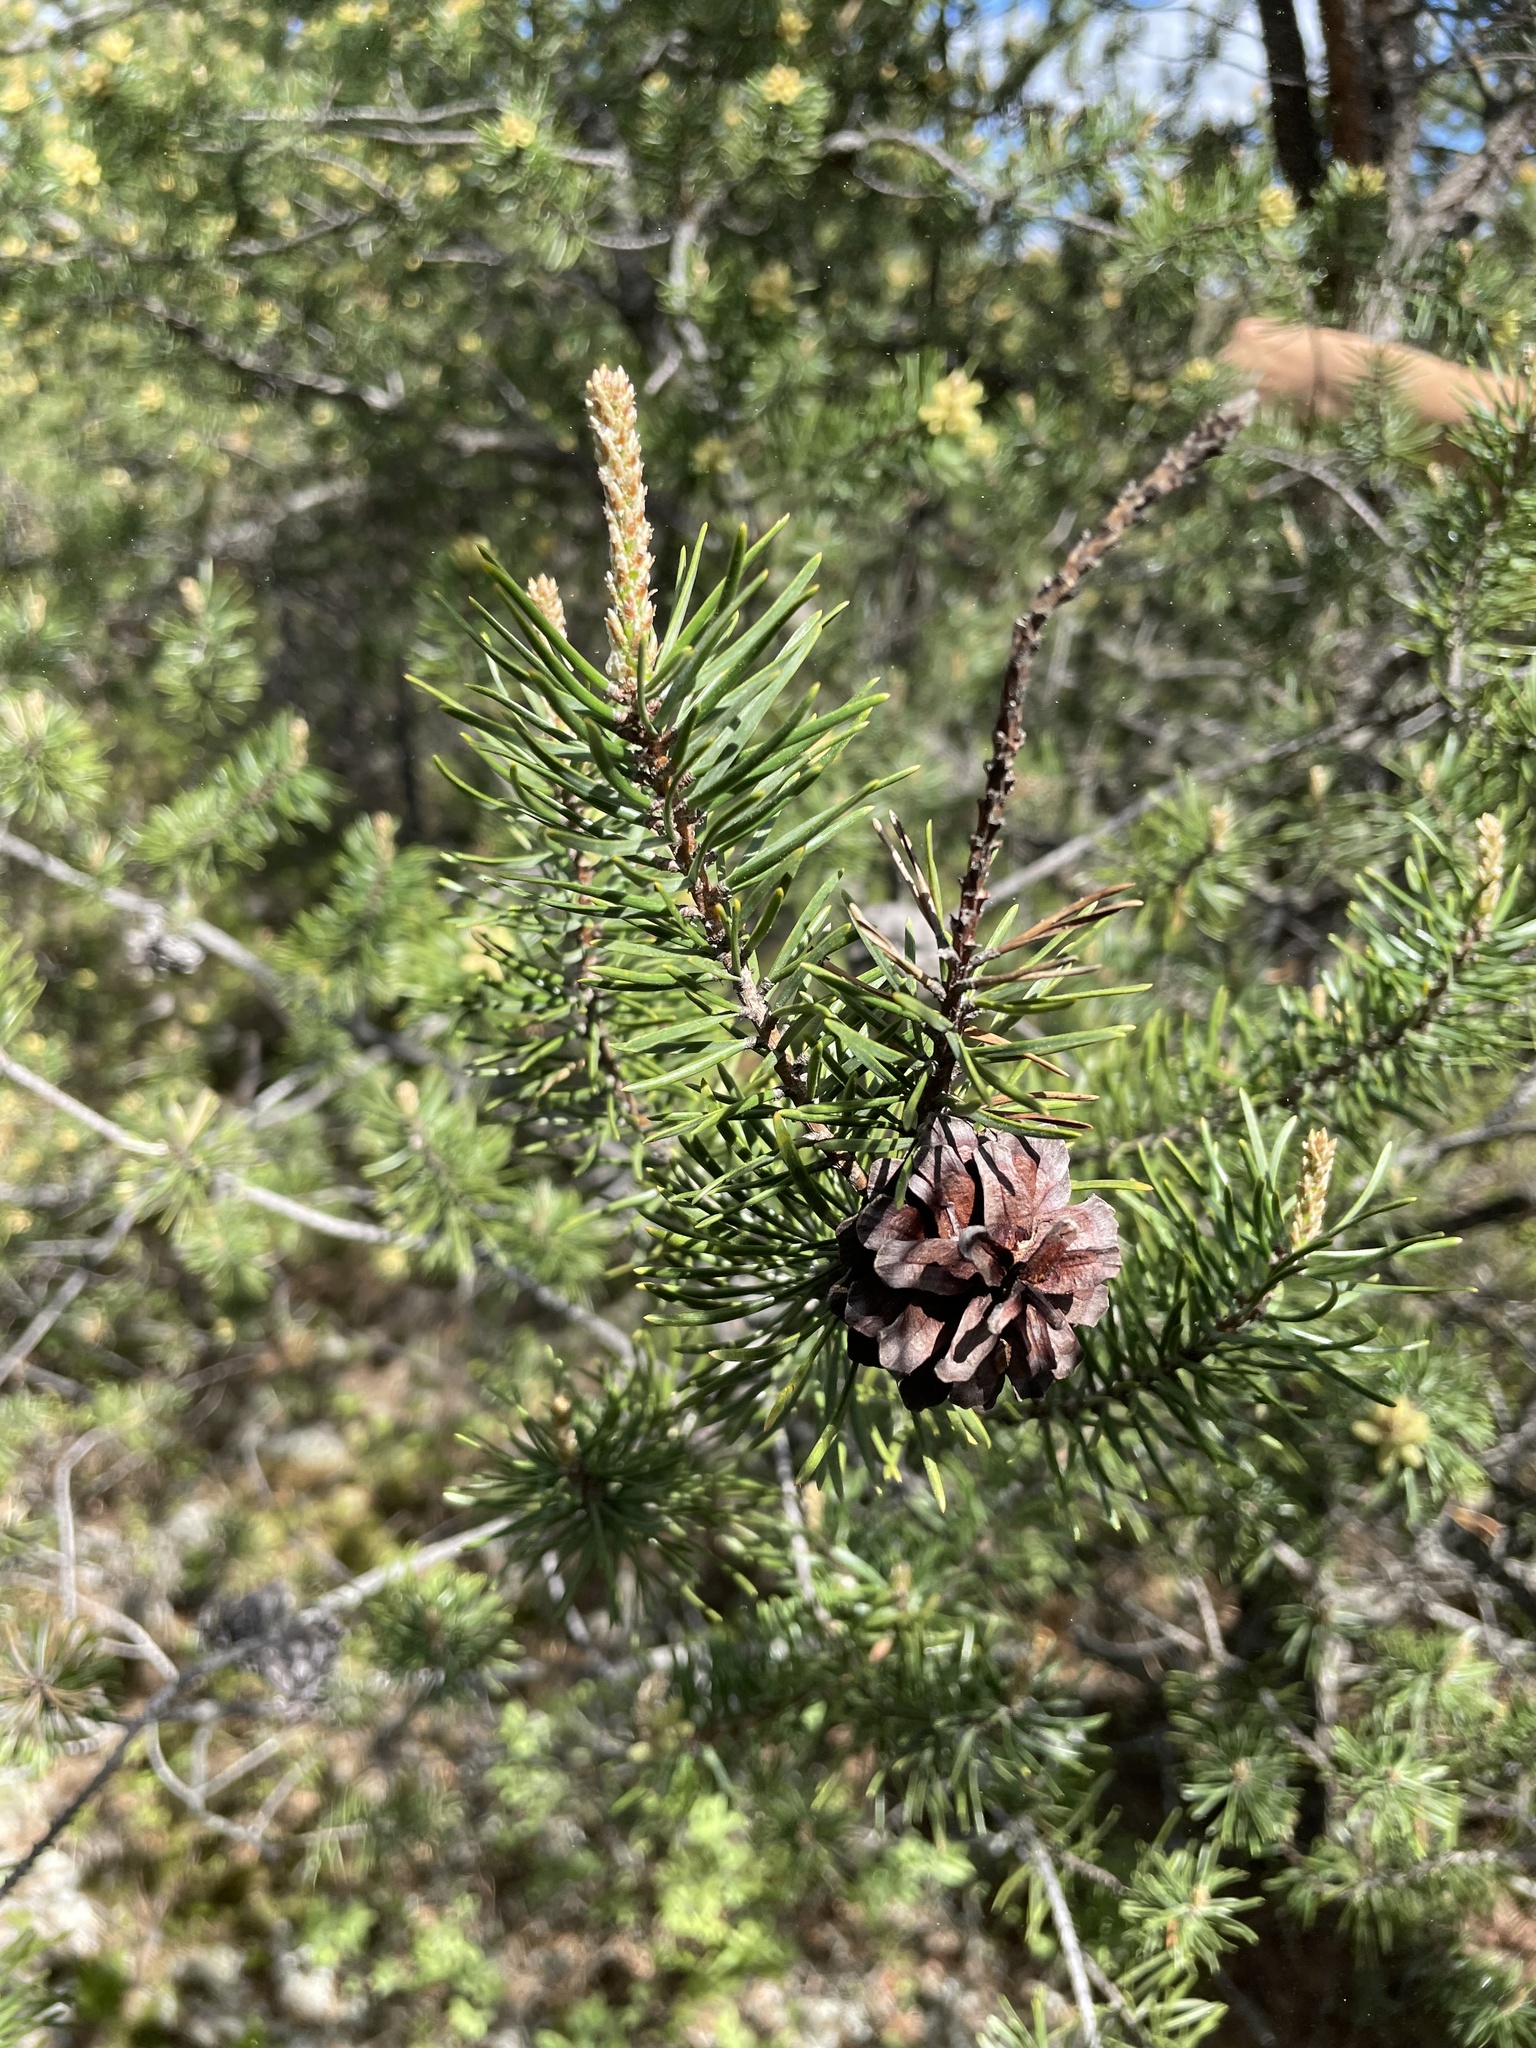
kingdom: Plantae
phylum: Tracheophyta
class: Pinopsida
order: Pinales
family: Pinaceae
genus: Pinus
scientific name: Pinus banksiana
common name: Jack pine
